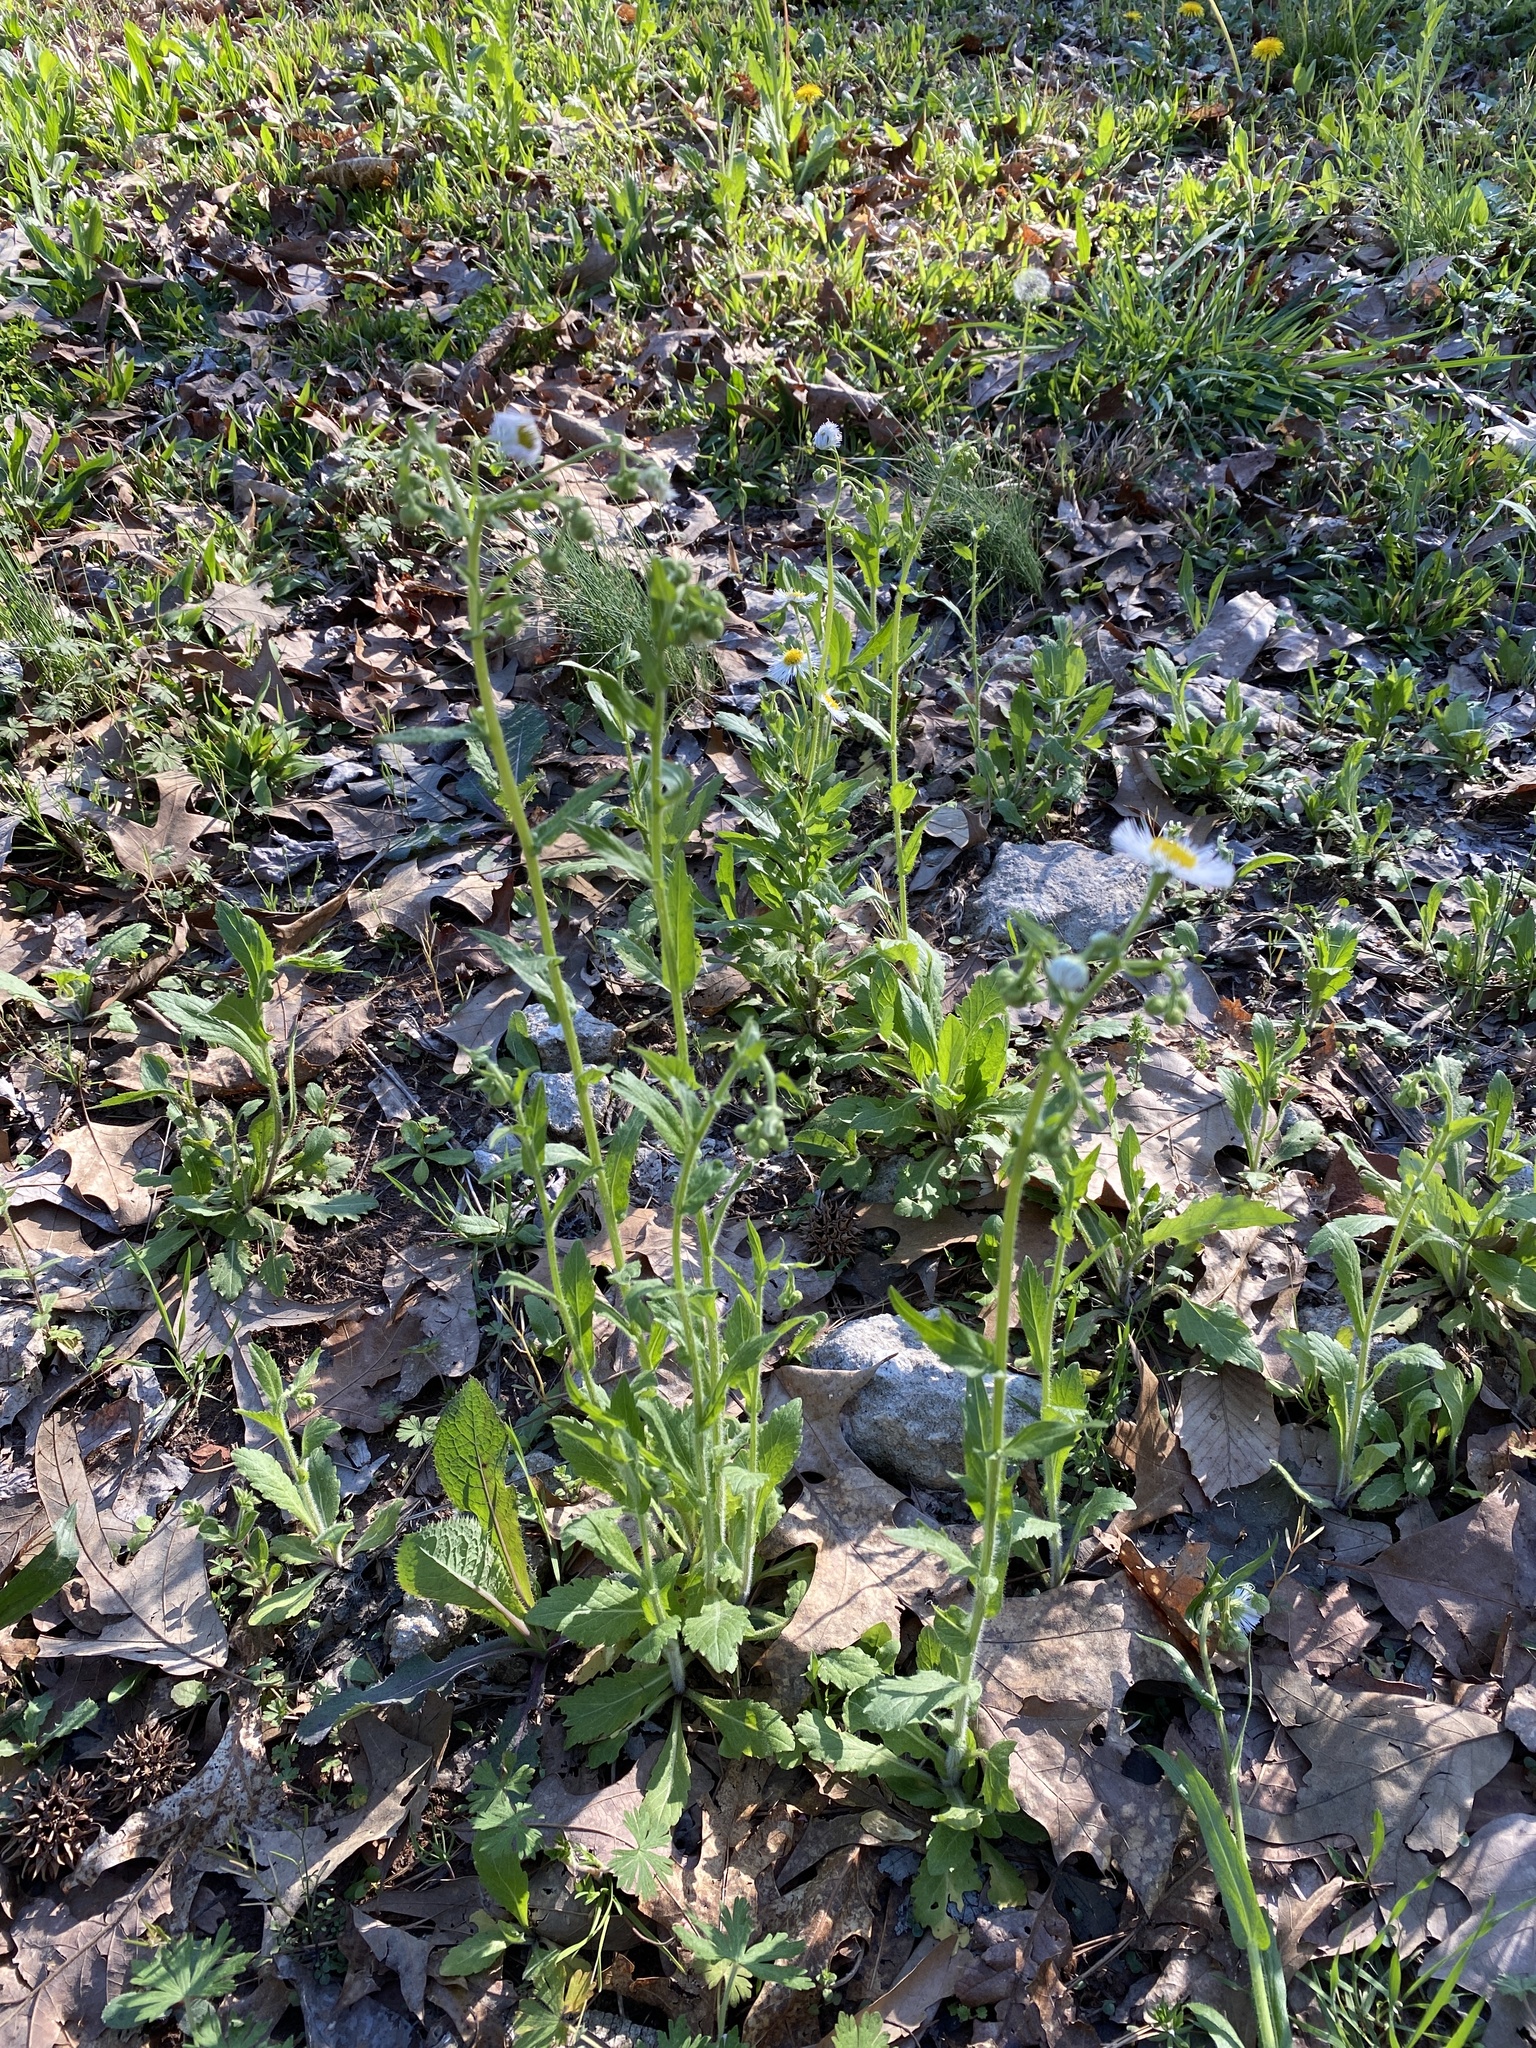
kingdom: Plantae
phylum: Tracheophyta
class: Magnoliopsida
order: Asterales
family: Asteraceae
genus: Erigeron
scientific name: Erigeron philadelphicus
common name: Robin's-plantain
